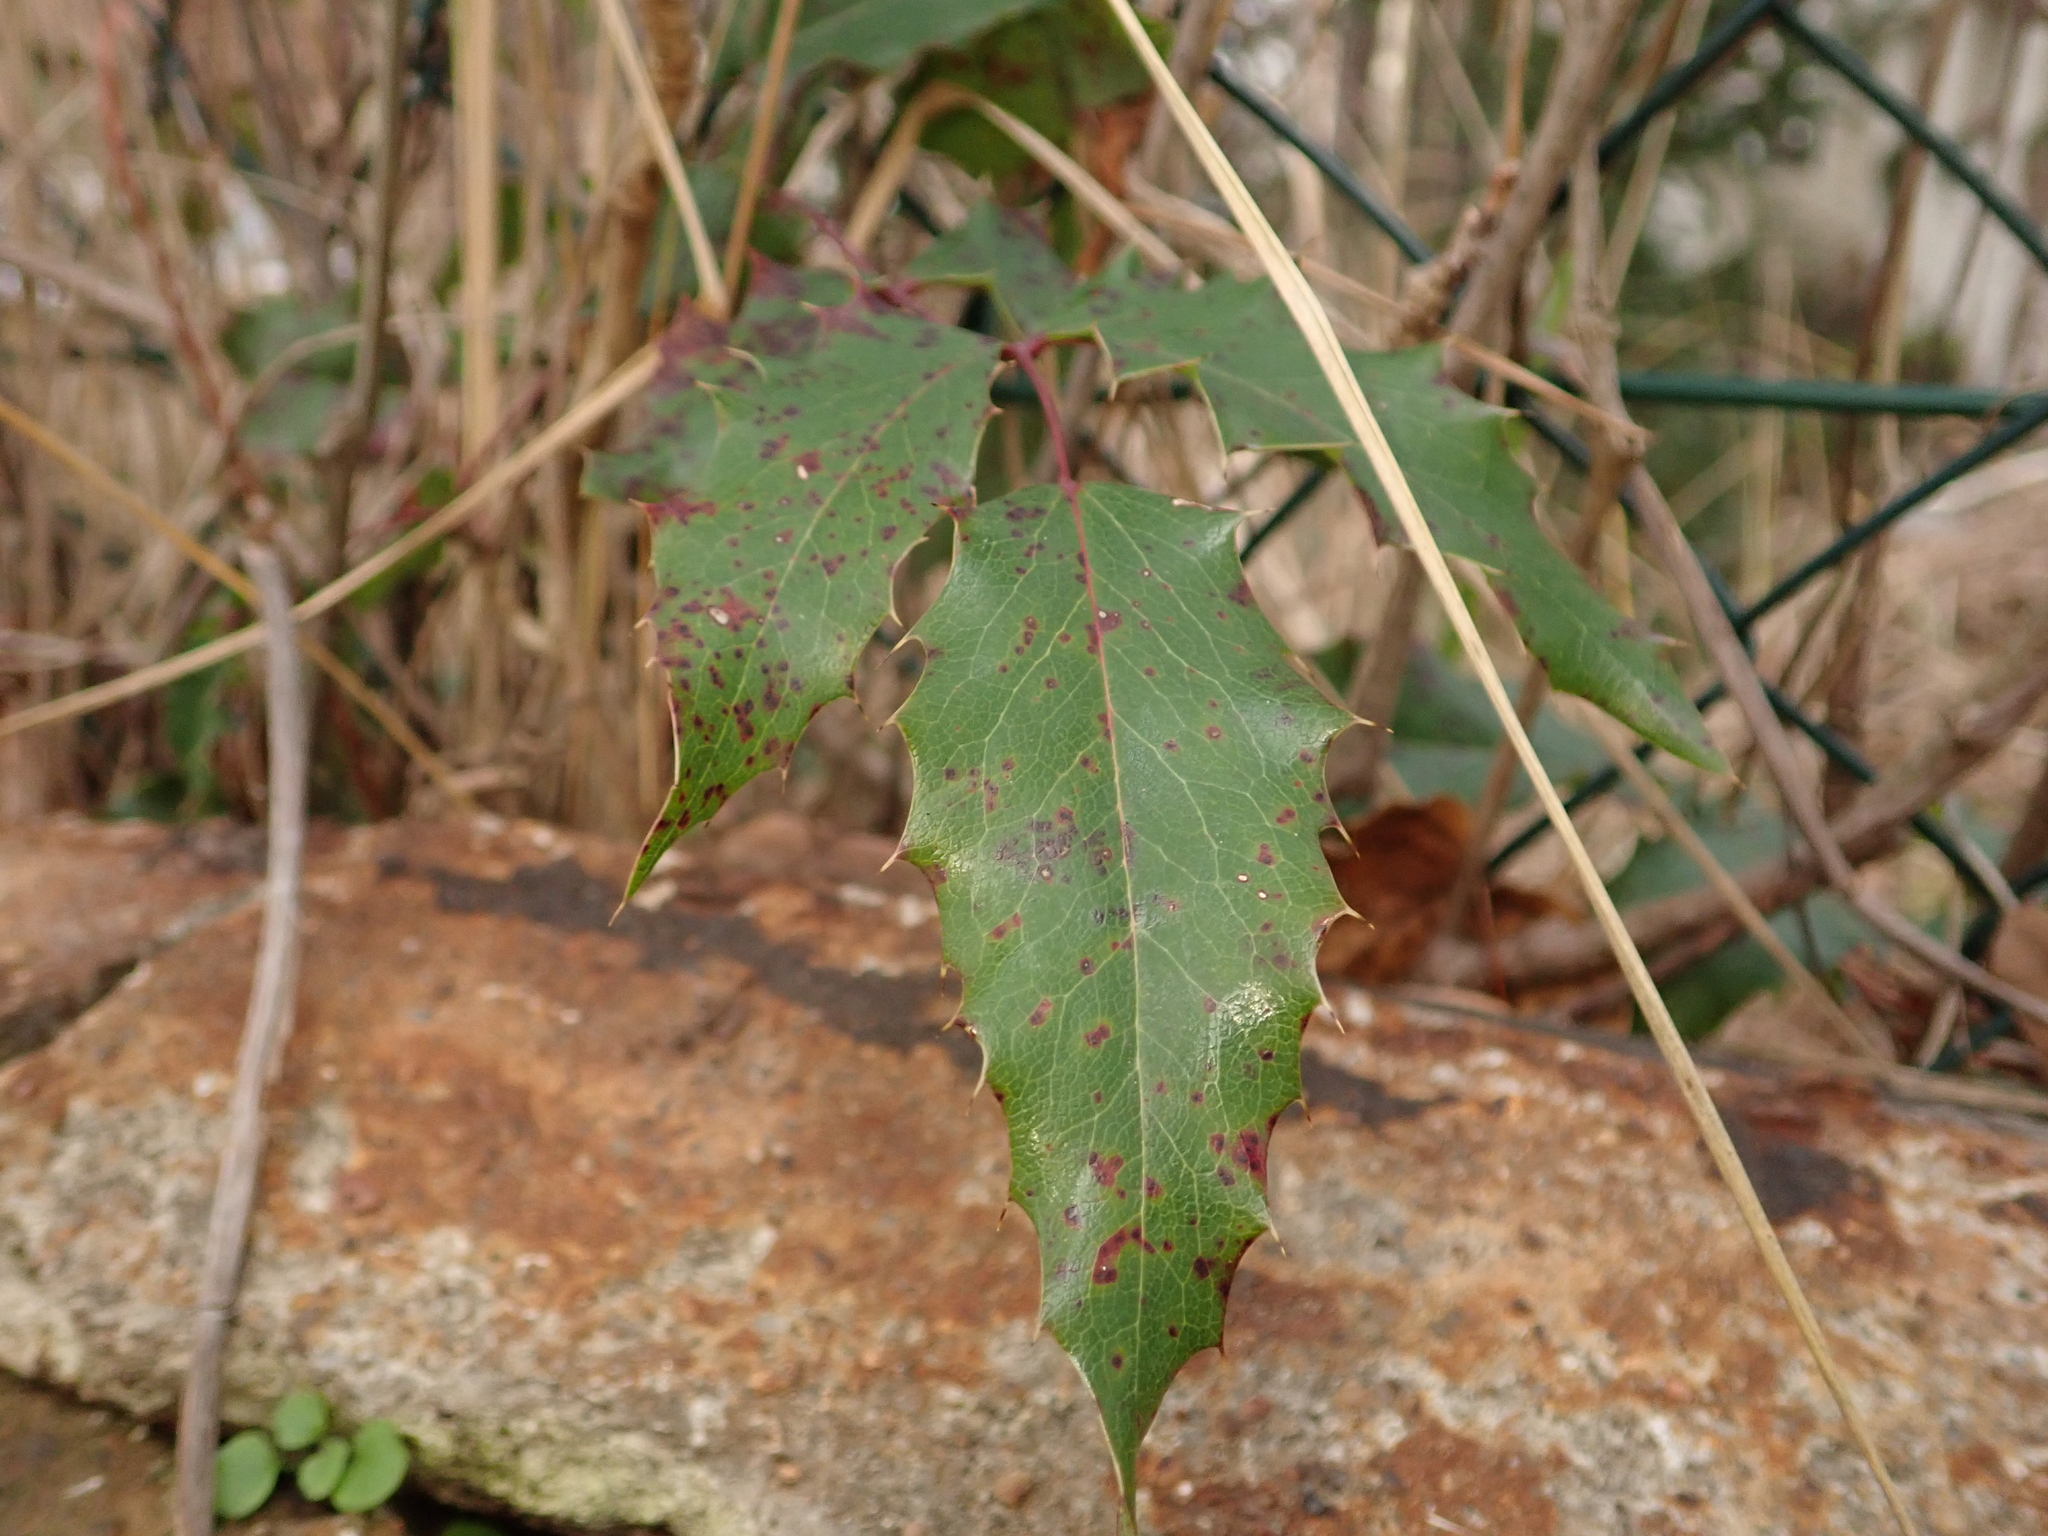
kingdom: Plantae
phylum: Tracheophyta
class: Magnoliopsida
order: Ranunculales
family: Berberidaceae
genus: Mahonia
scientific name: Mahonia aquifolium
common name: Oregon-grape
